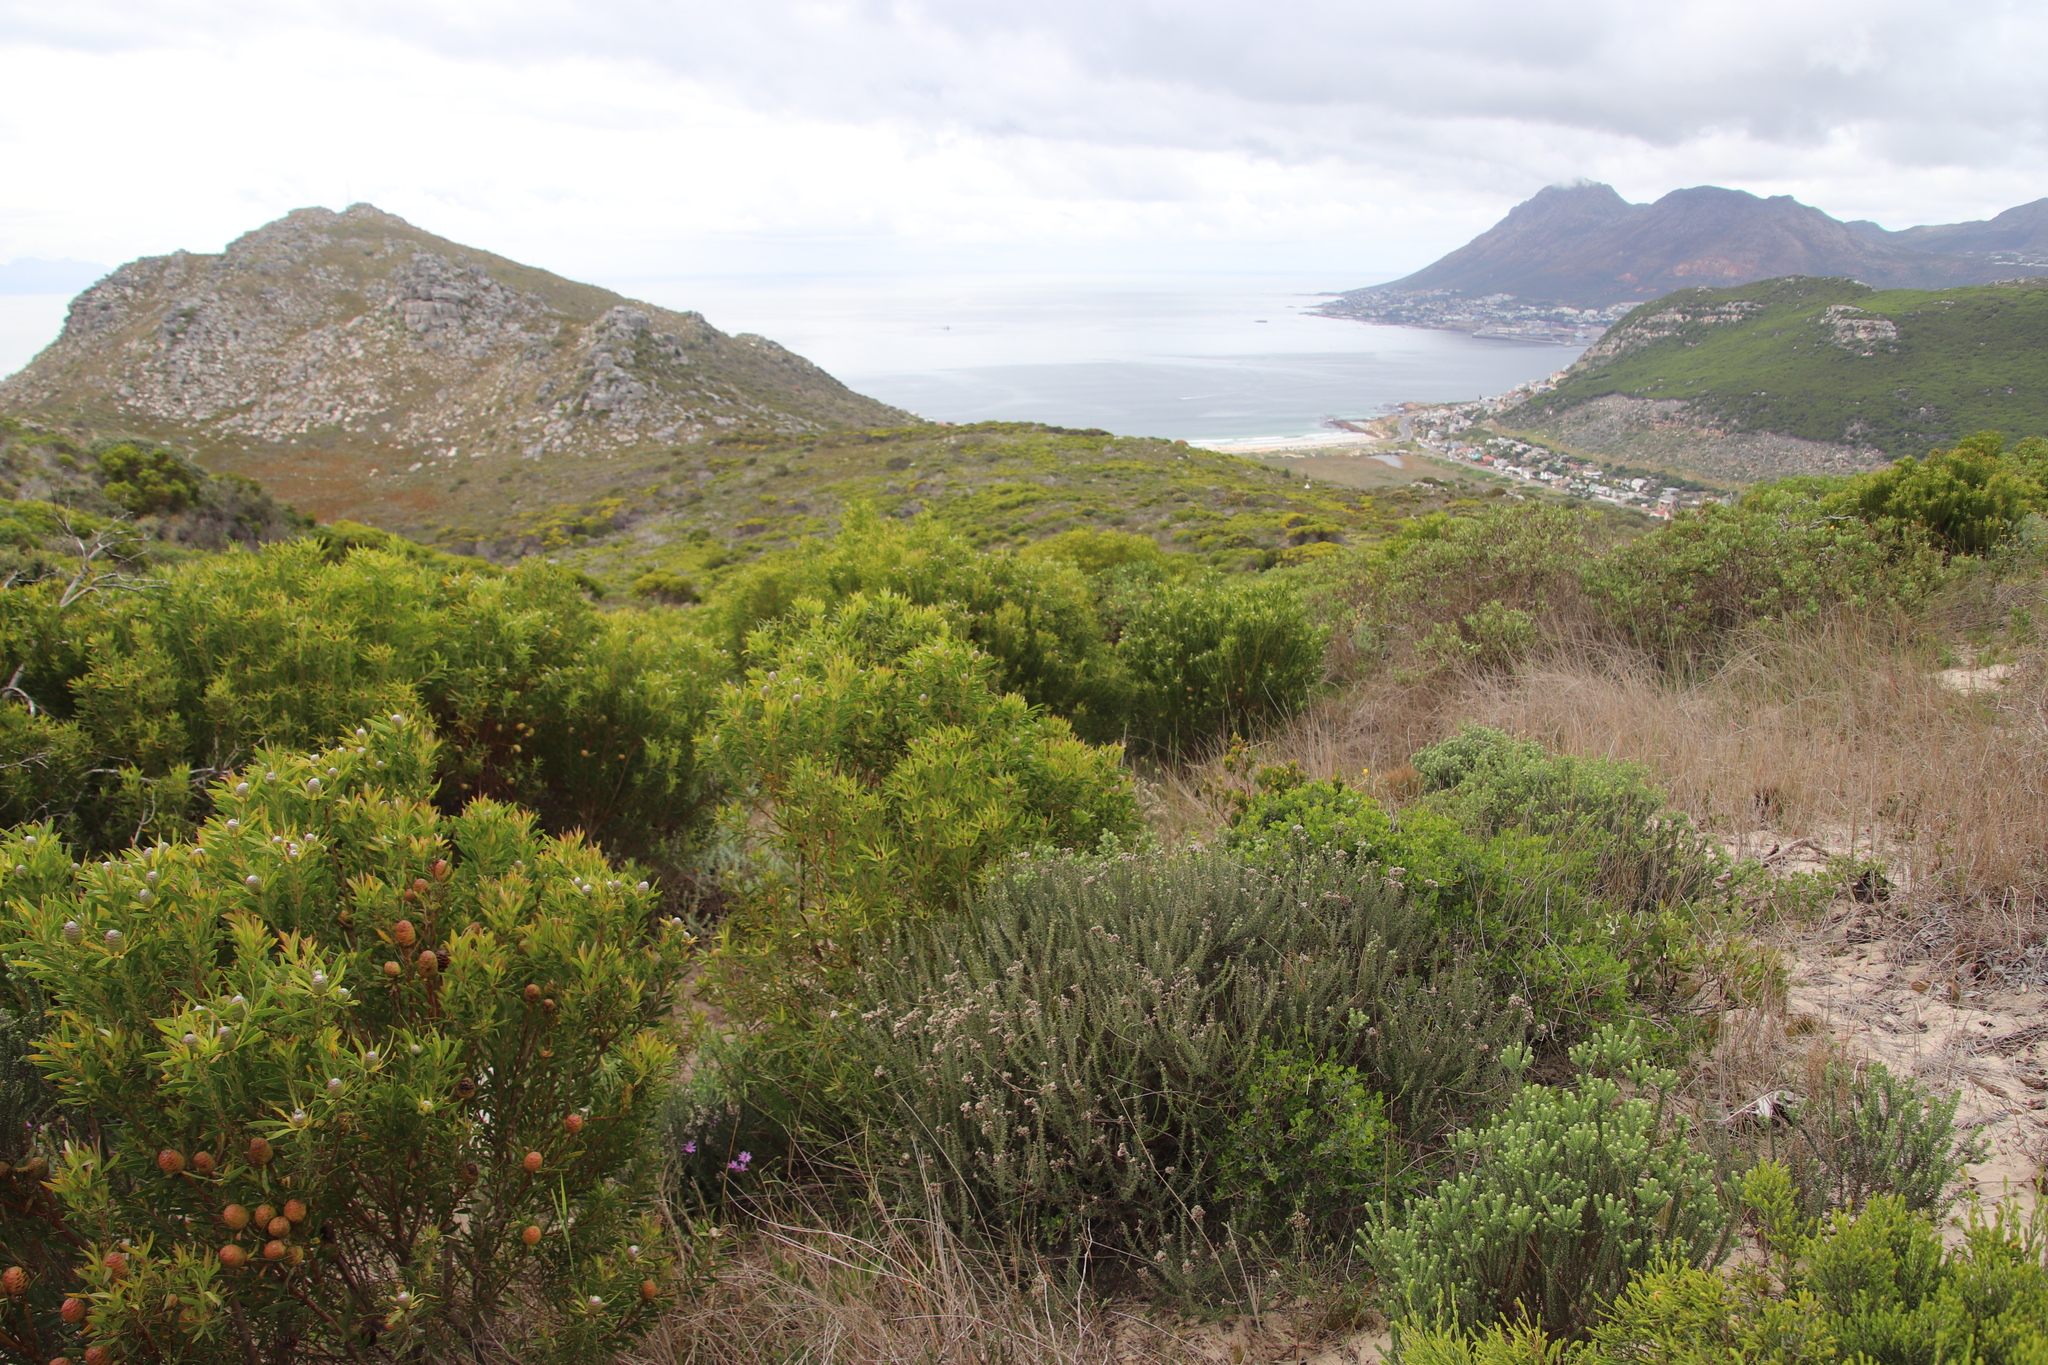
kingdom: Plantae
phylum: Tracheophyta
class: Magnoliopsida
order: Proteales
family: Proteaceae
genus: Leucadendron
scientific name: Leucadendron coniferum
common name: Dune conebush
